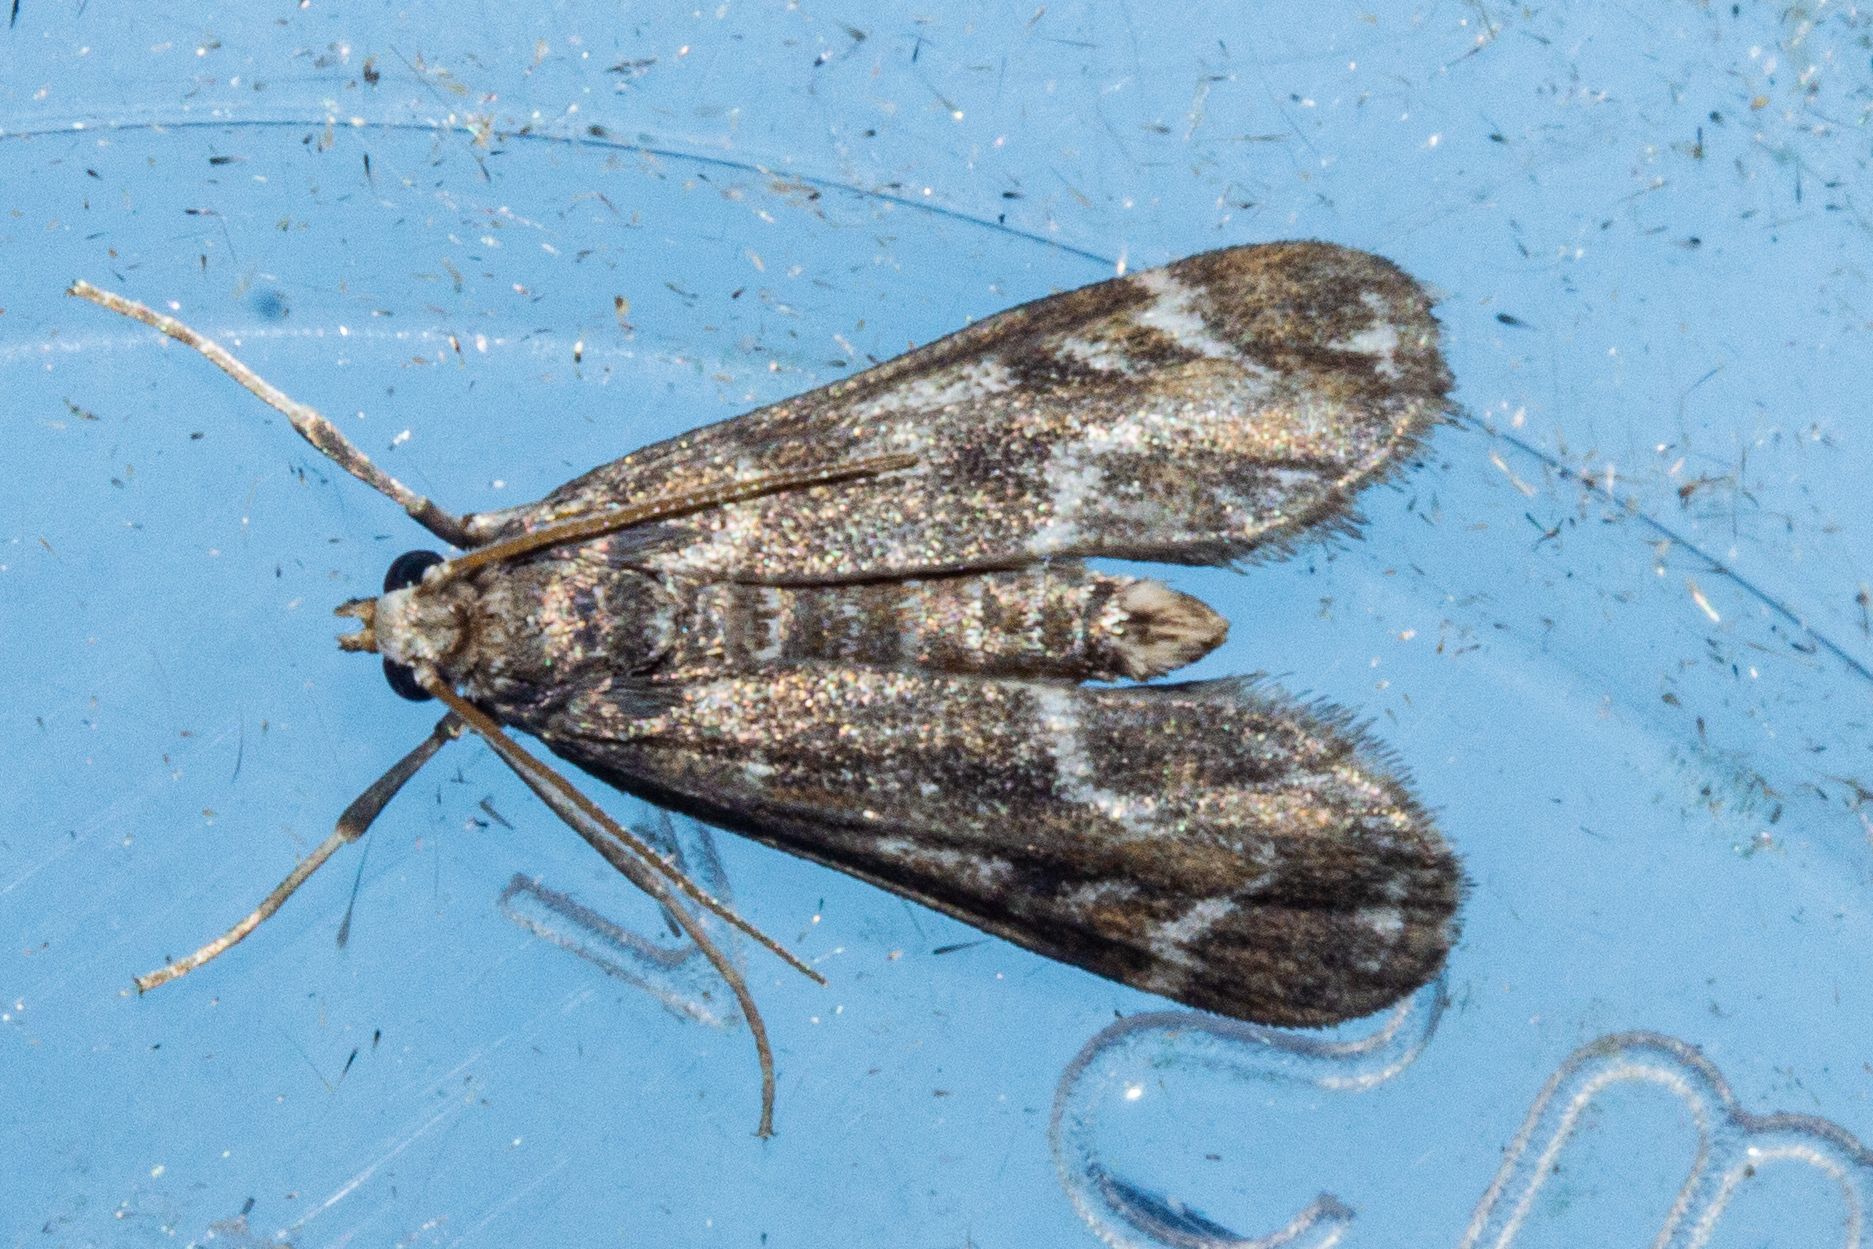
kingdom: Animalia
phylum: Arthropoda
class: Insecta
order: Lepidoptera
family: Crambidae
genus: Hygraula
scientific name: Hygraula nitens
